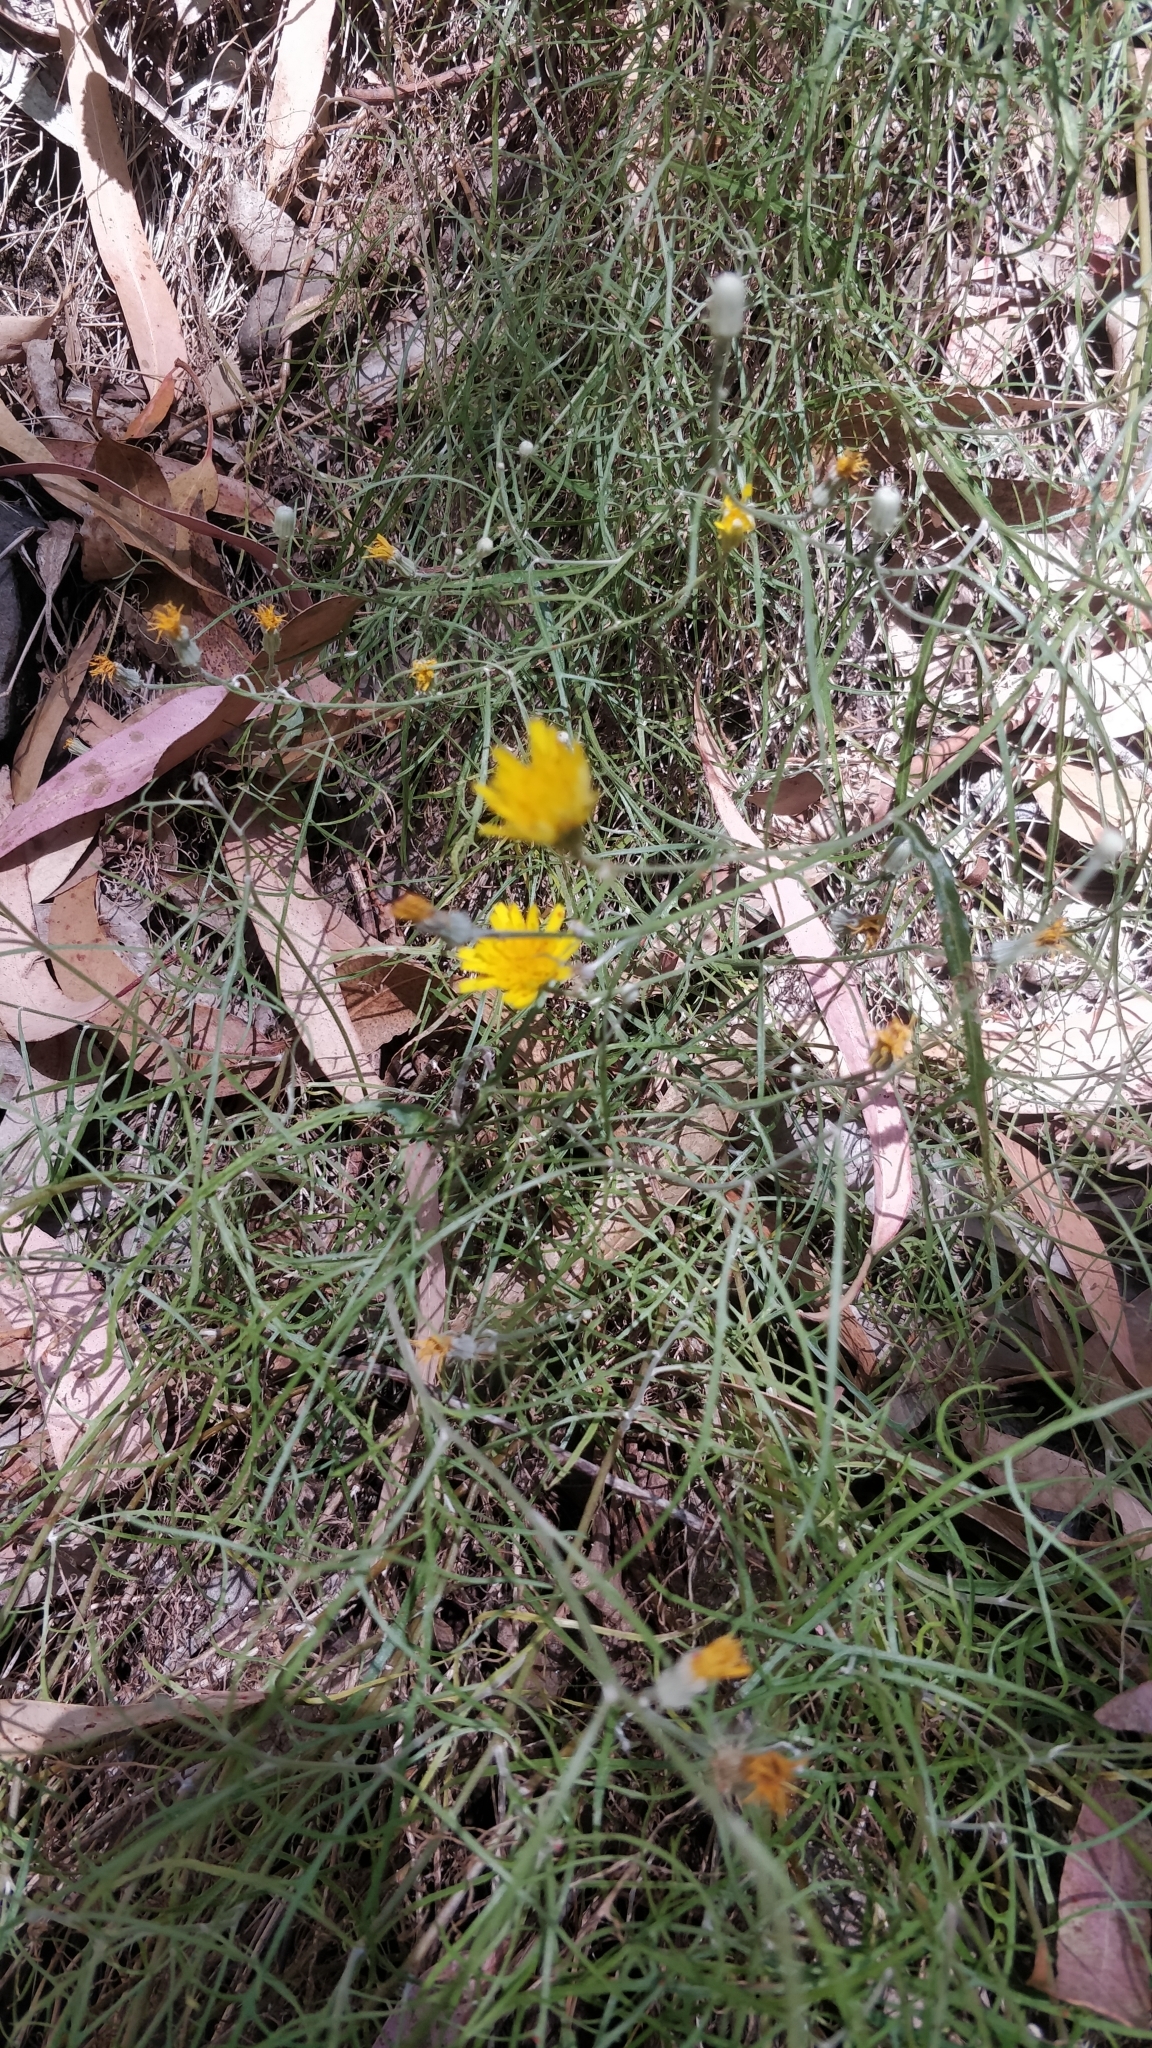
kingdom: Plantae
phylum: Tracheophyta
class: Magnoliopsida
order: Asterales
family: Asteraceae
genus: Tolpis
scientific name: Tolpis succulenta
